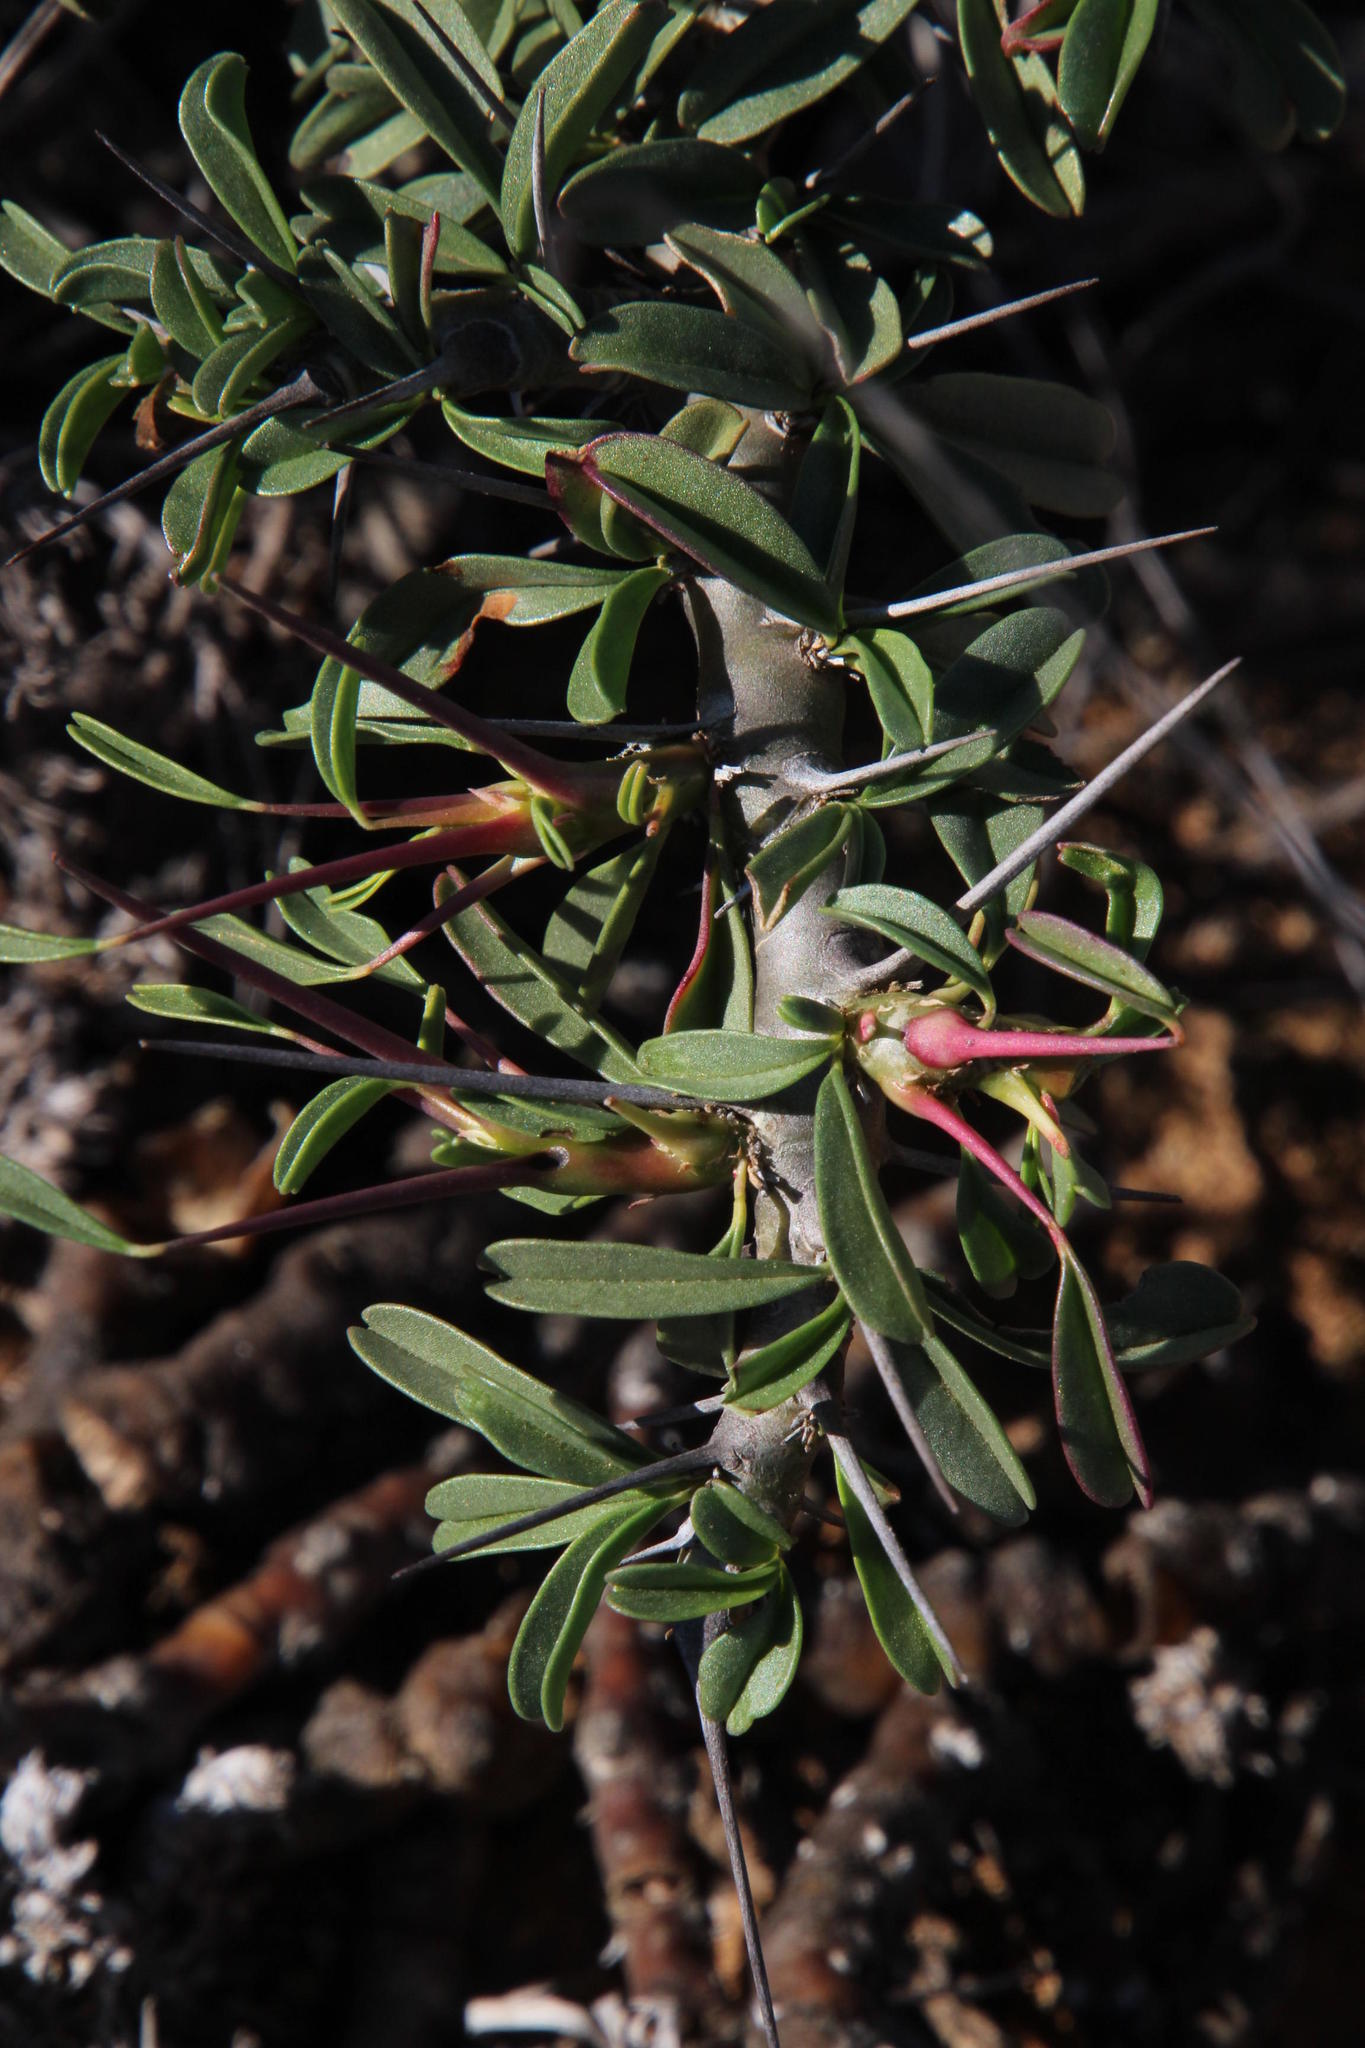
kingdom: Plantae
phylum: Tracheophyta
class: Magnoliopsida
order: Geraniales
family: Geraniaceae
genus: Monsonia
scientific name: Monsonia camdeboensis
